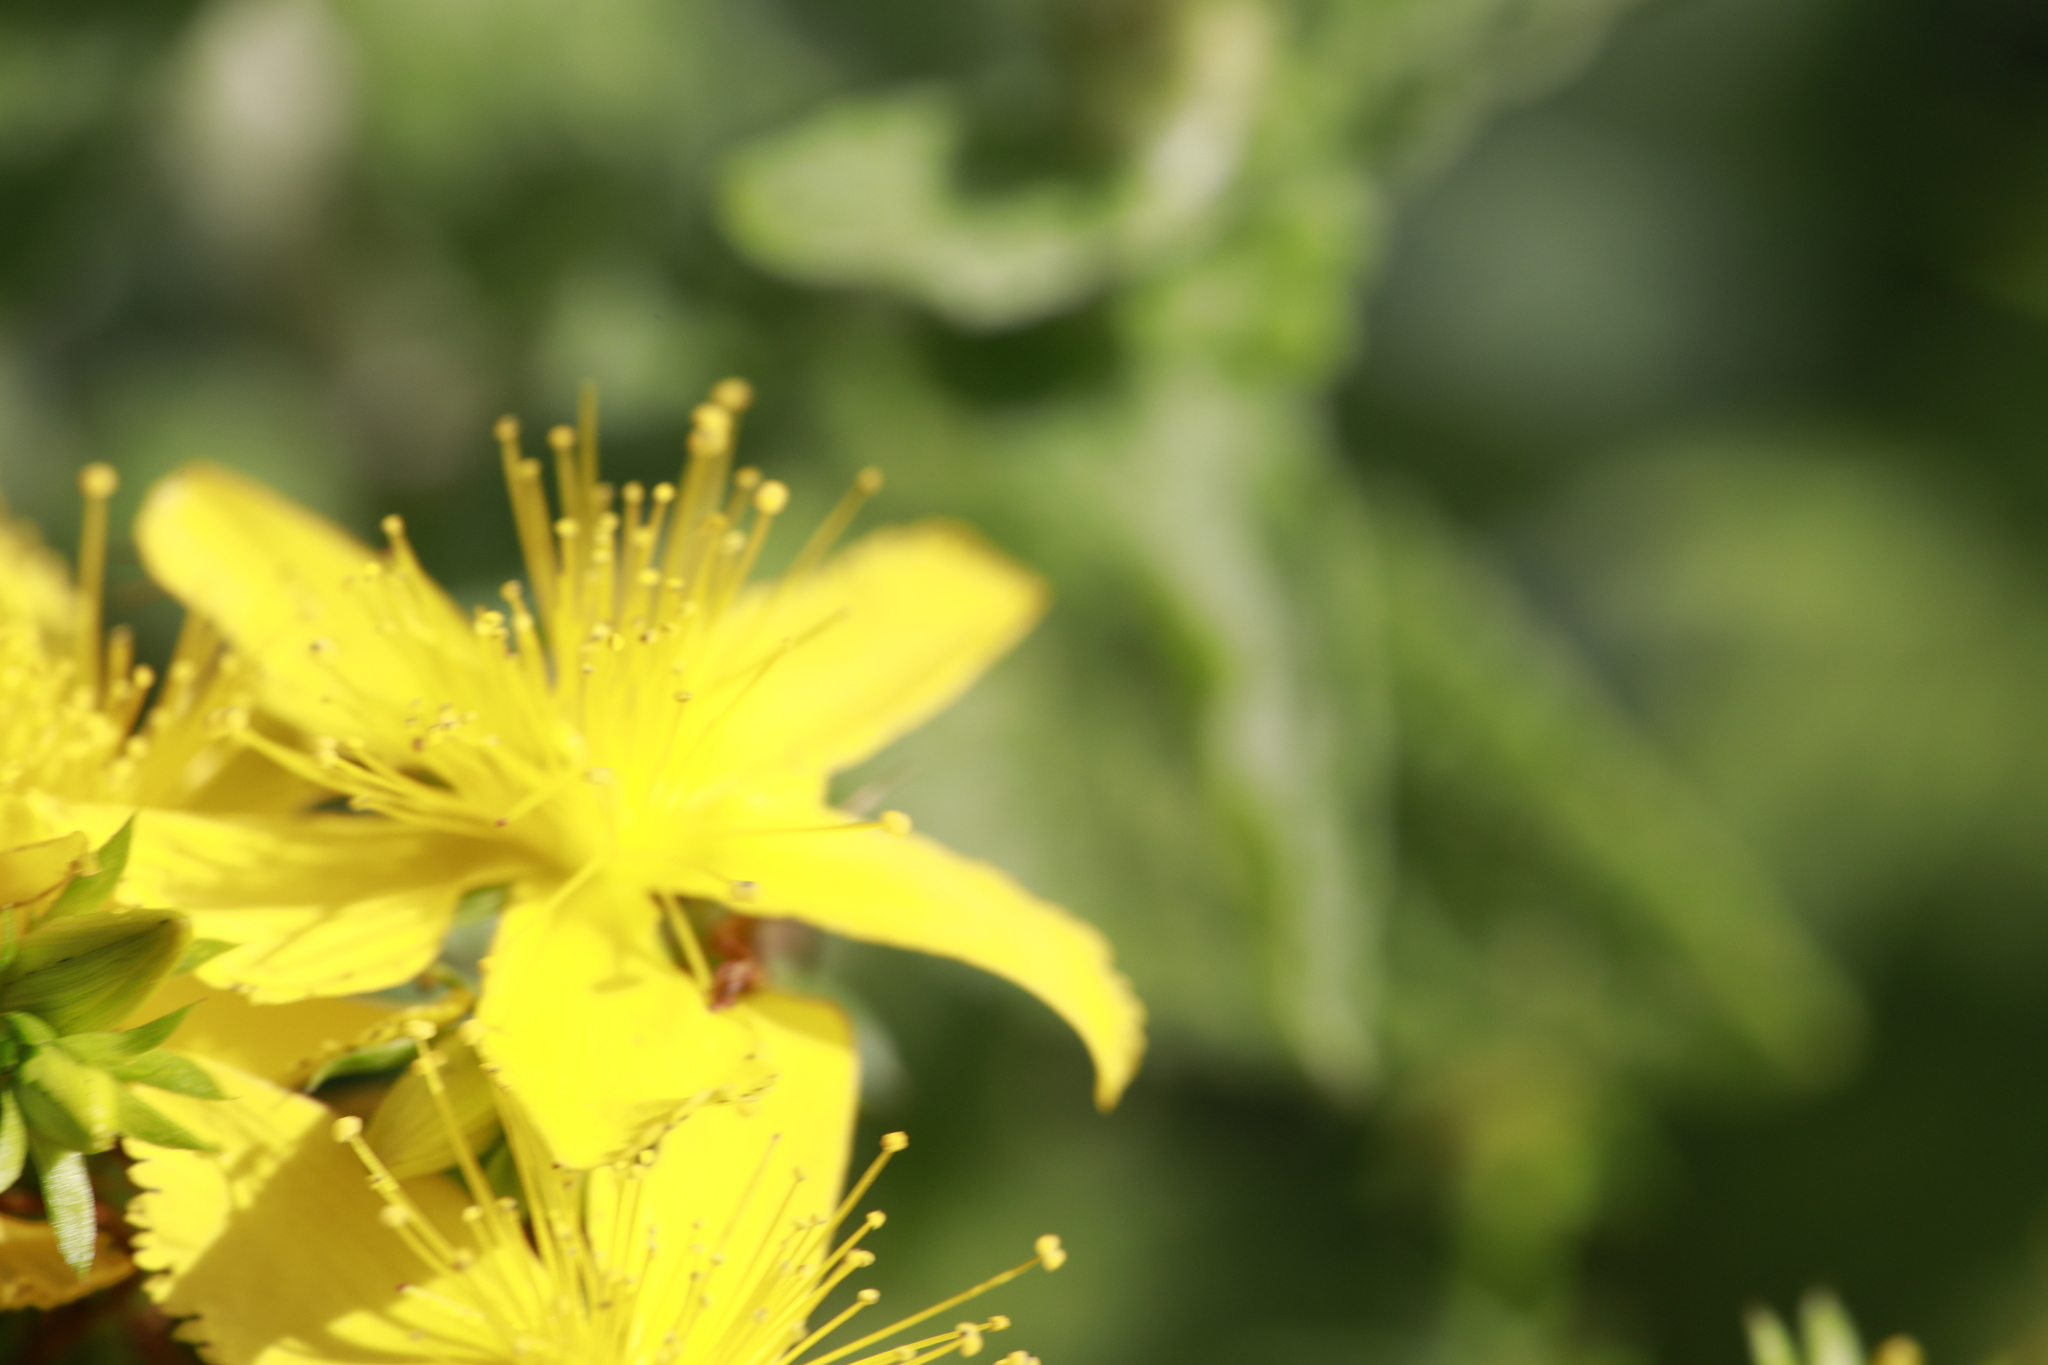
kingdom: Plantae
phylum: Tracheophyta
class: Magnoliopsida
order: Malpighiales
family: Hypericaceae
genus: Hypericum
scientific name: Hypericum perforatum
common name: Common st. johnswort
